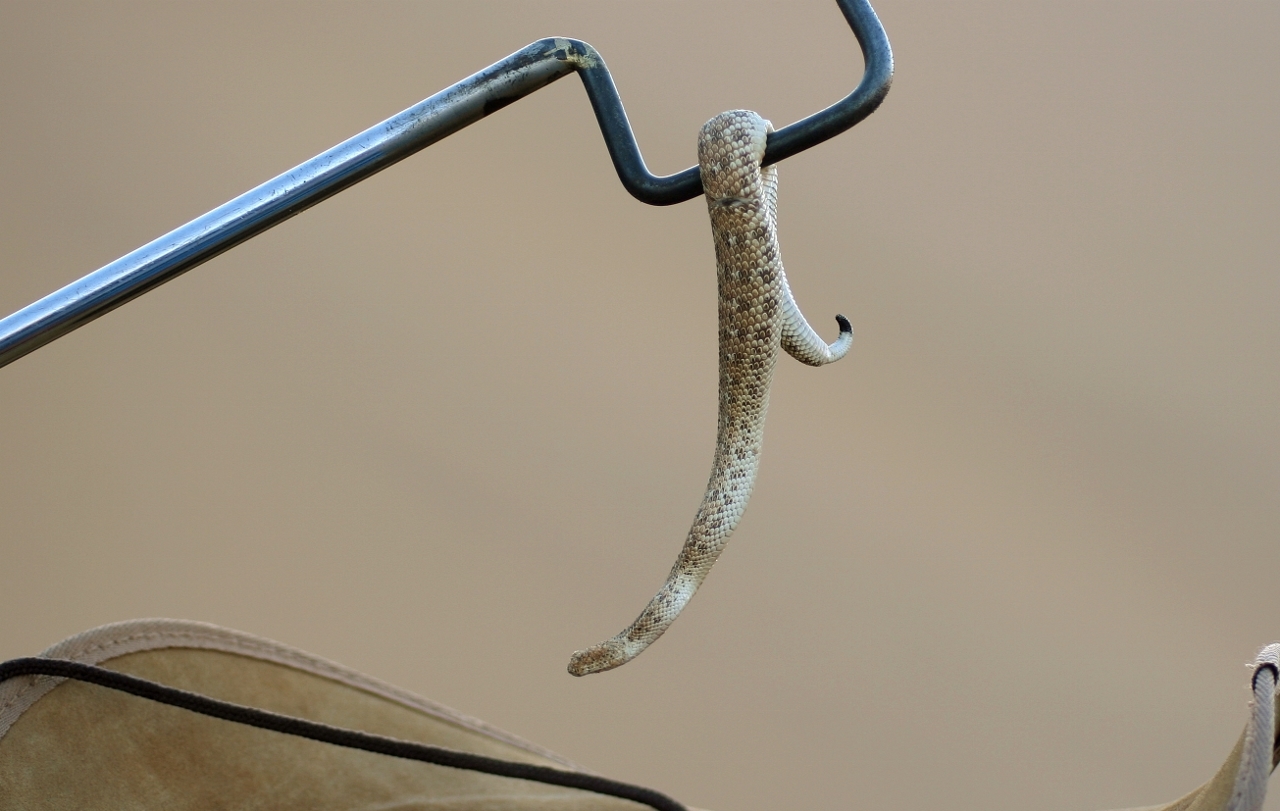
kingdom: Animalia
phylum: Chordata
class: Squamata
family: Viperidae
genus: Bitis
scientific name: Bitis peringueyi
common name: Dwarf puff adder
